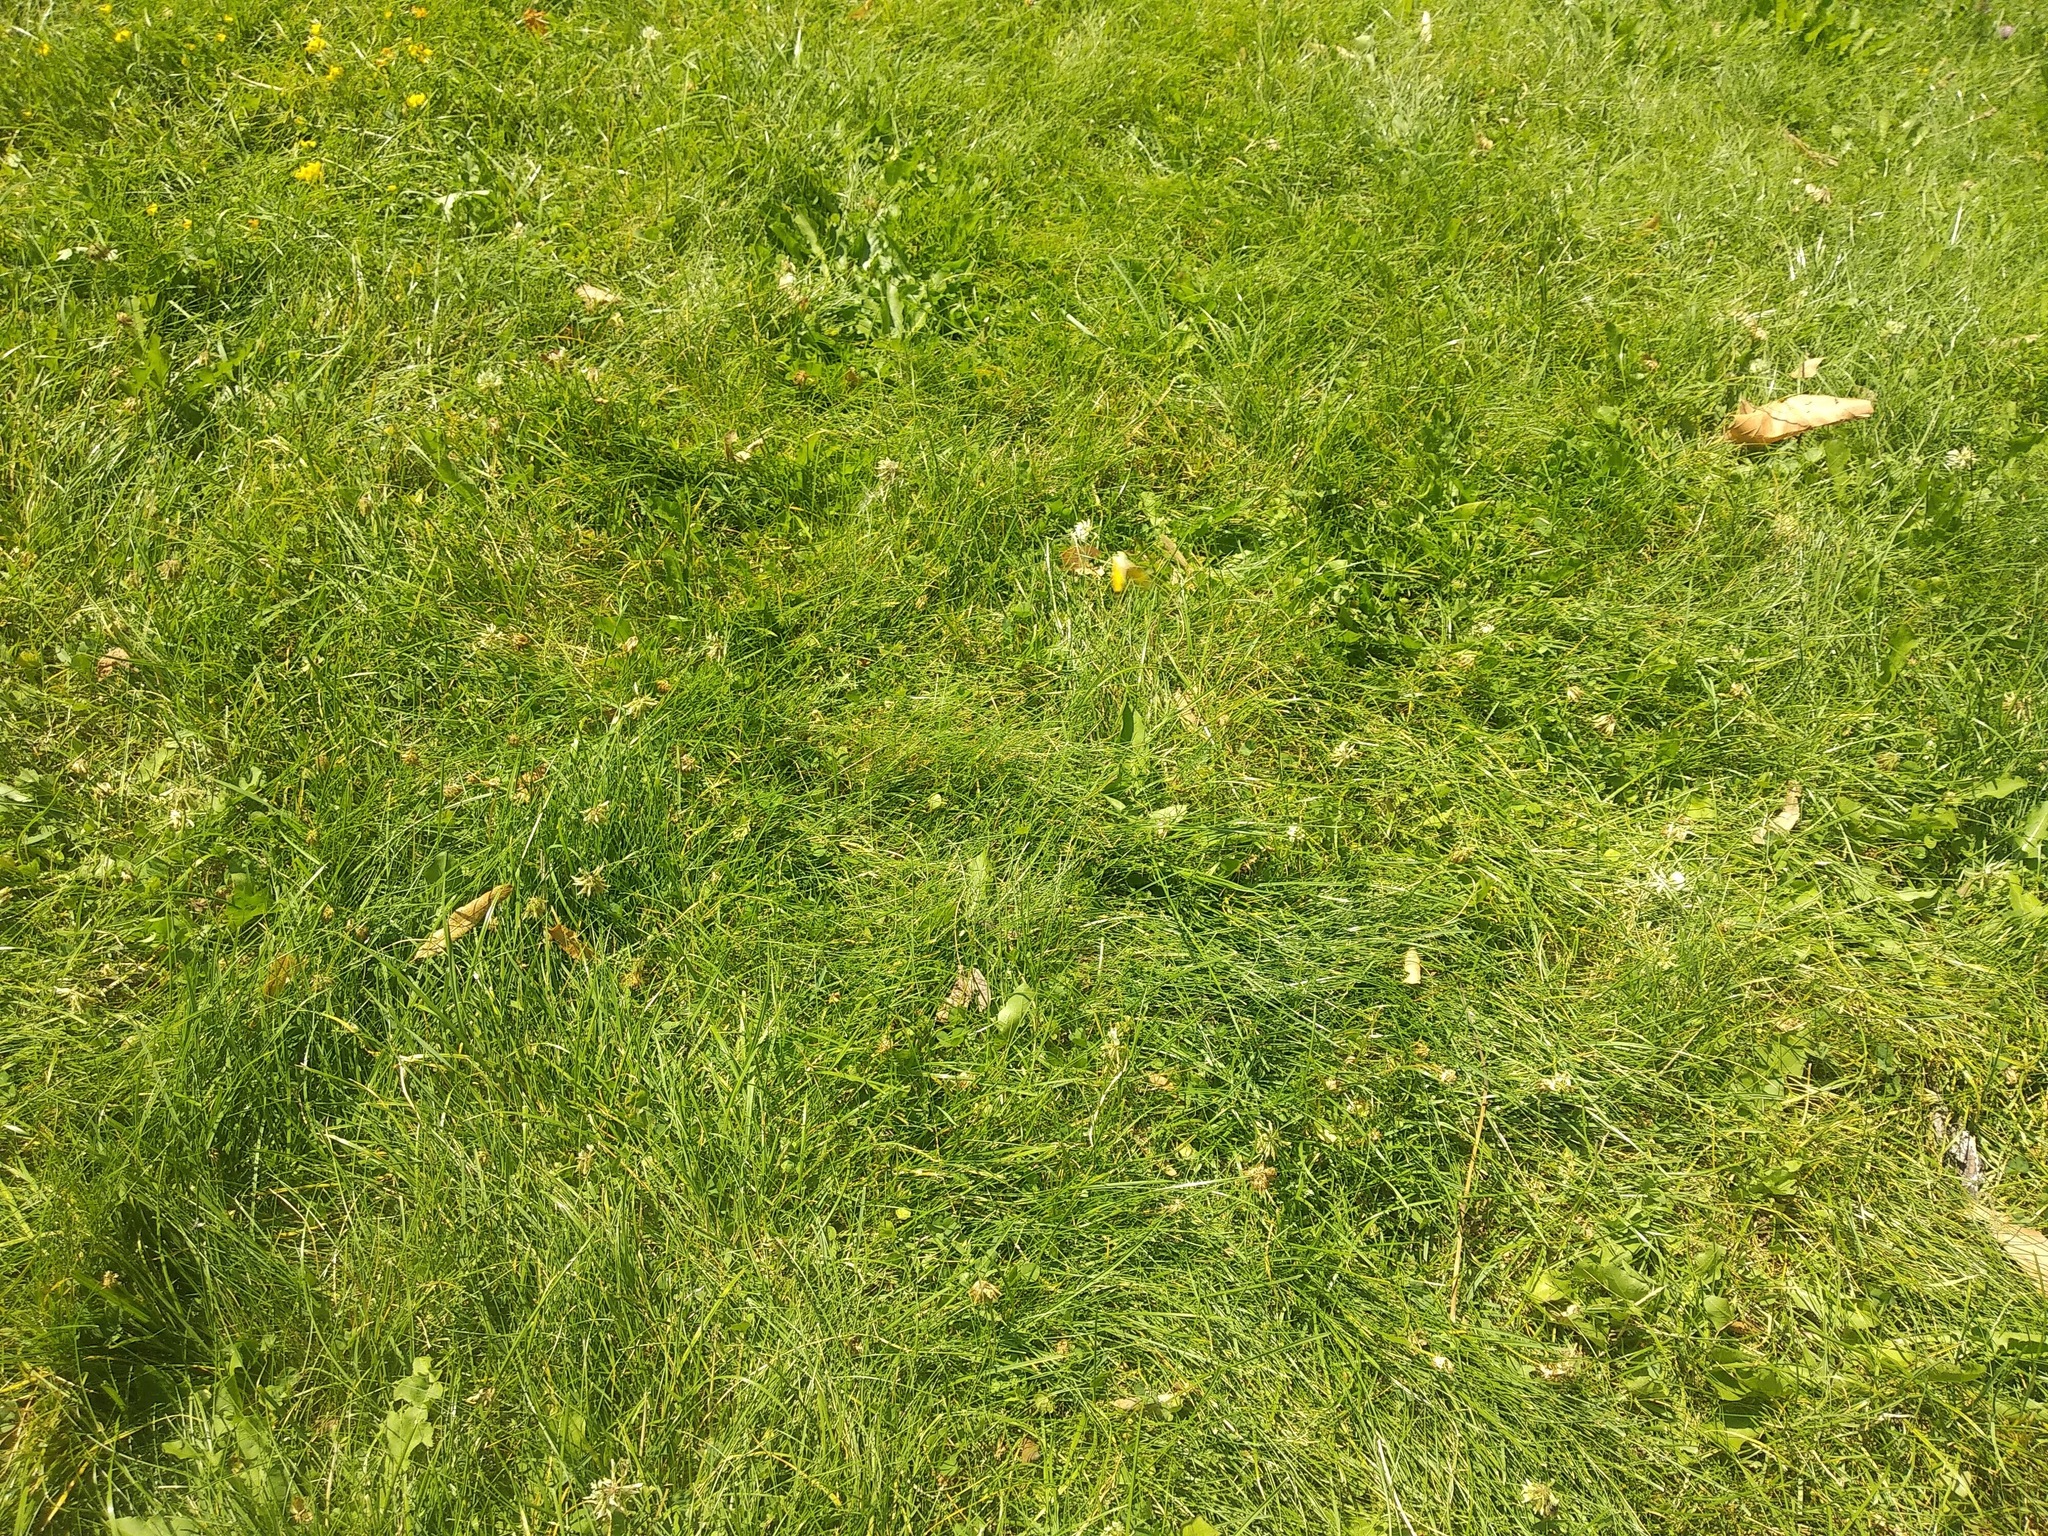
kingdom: Animalia
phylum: Arthropoda
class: Insecta
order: Lepidoptera
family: Pieridae
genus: Colias
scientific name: Colias croceus
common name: Clouded yellow
